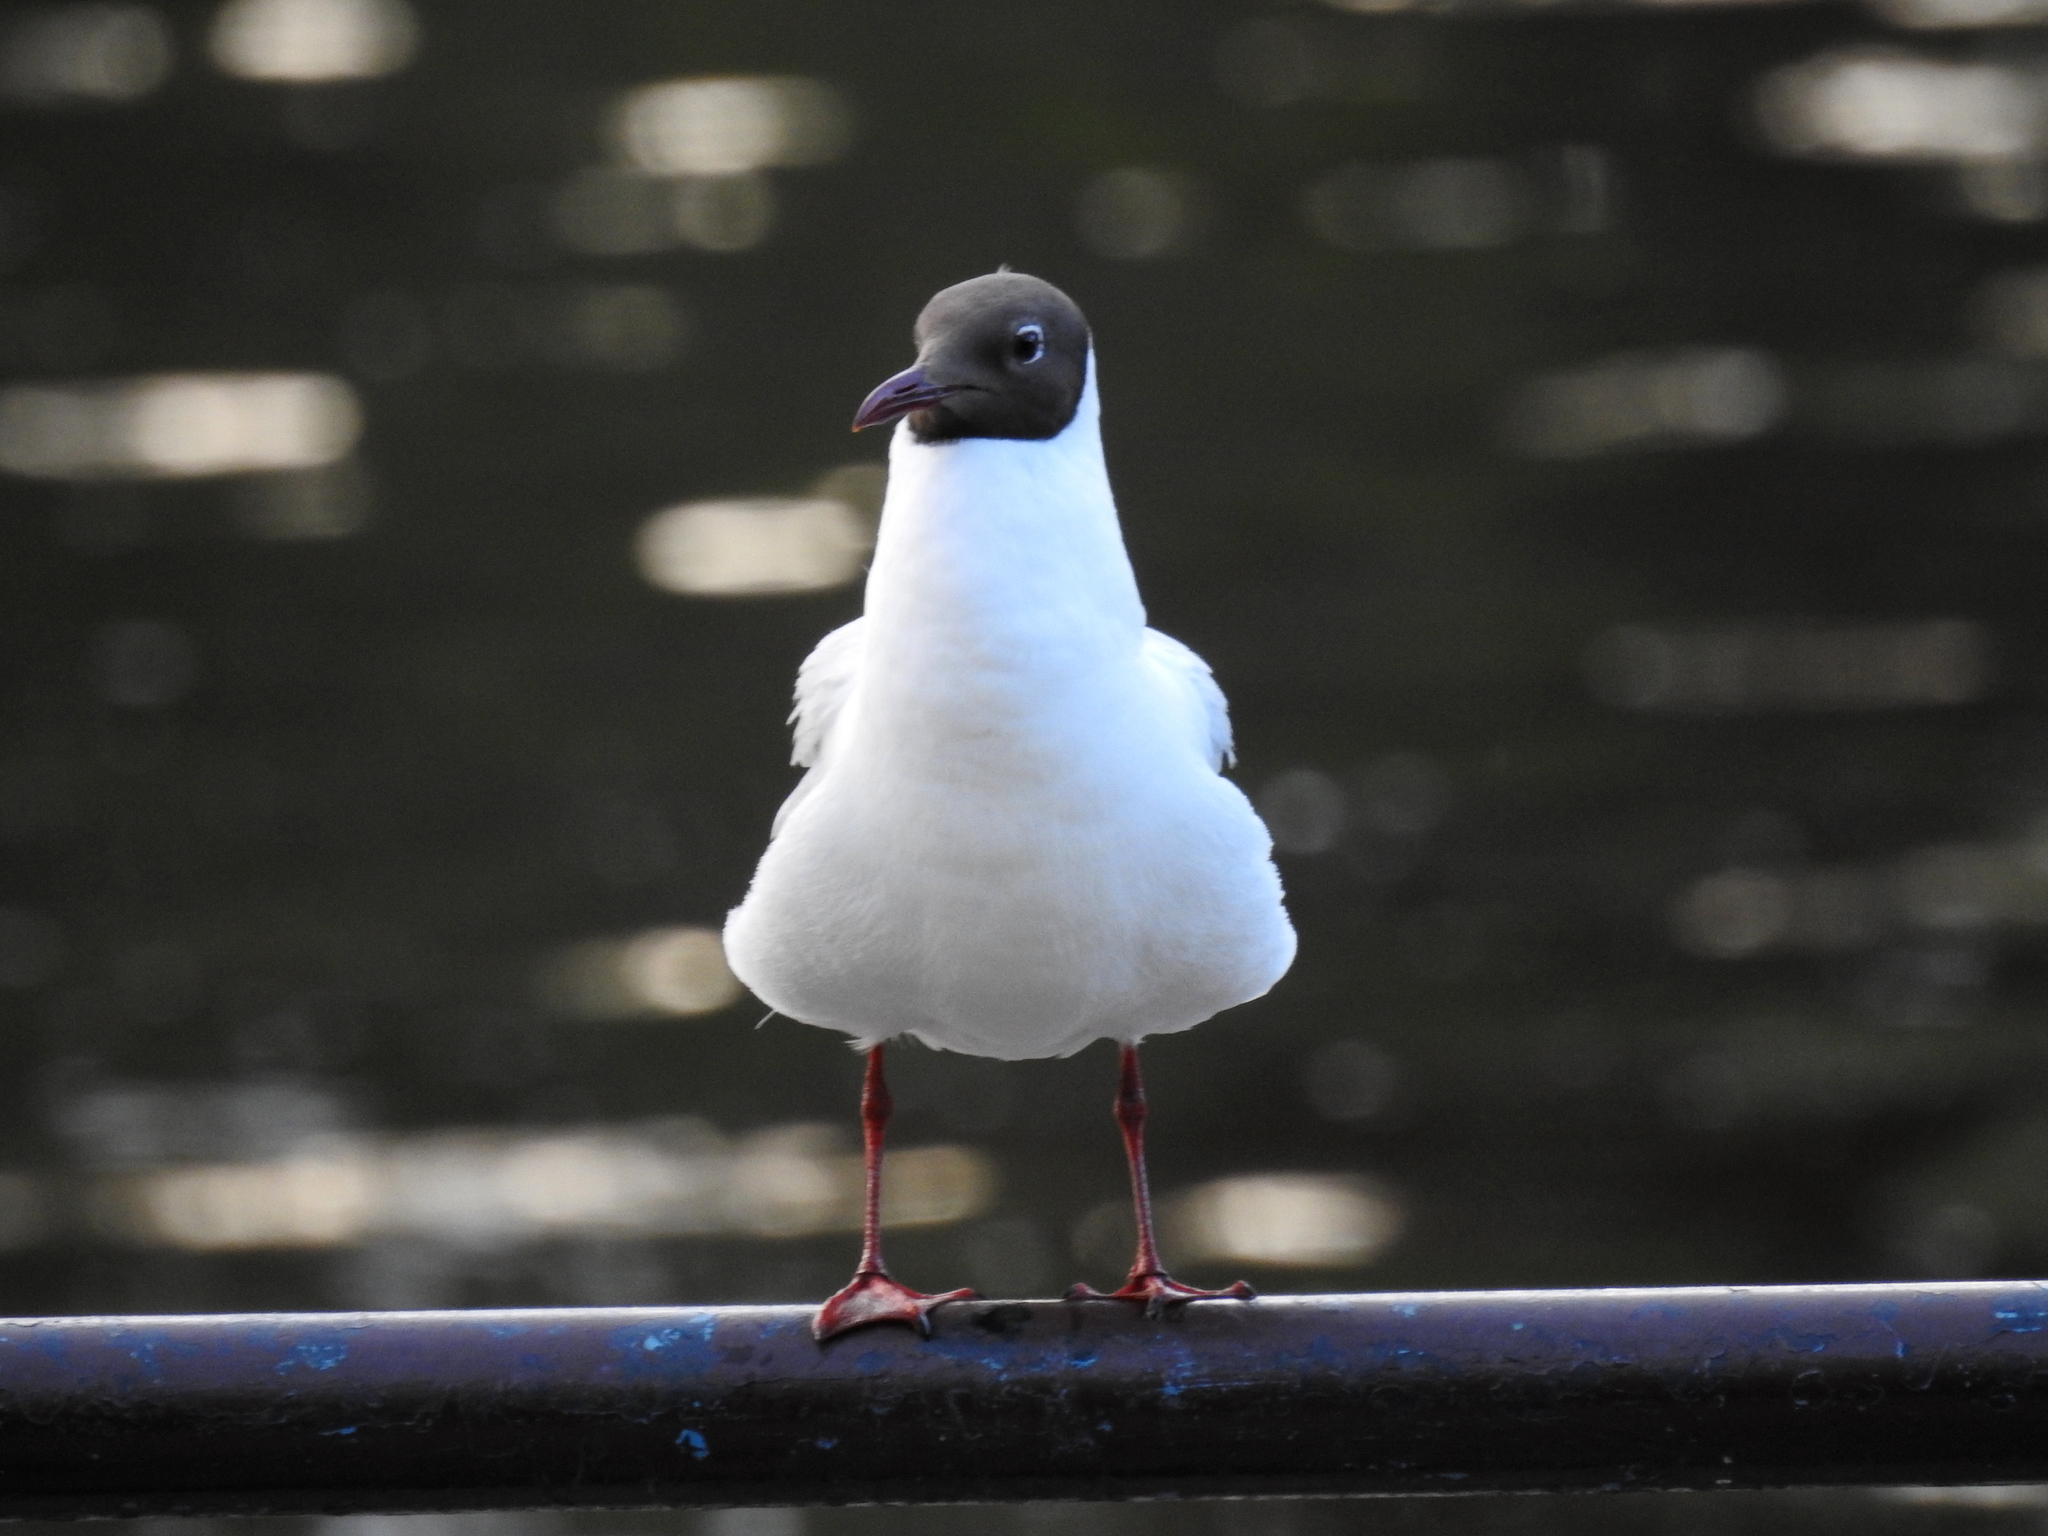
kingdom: Animalia
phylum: Chordata
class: Aves
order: Charadriiformes
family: Laridae
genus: Chroicocephalus
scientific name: Chroicocephalus ridibundus
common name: Black-headed gull
